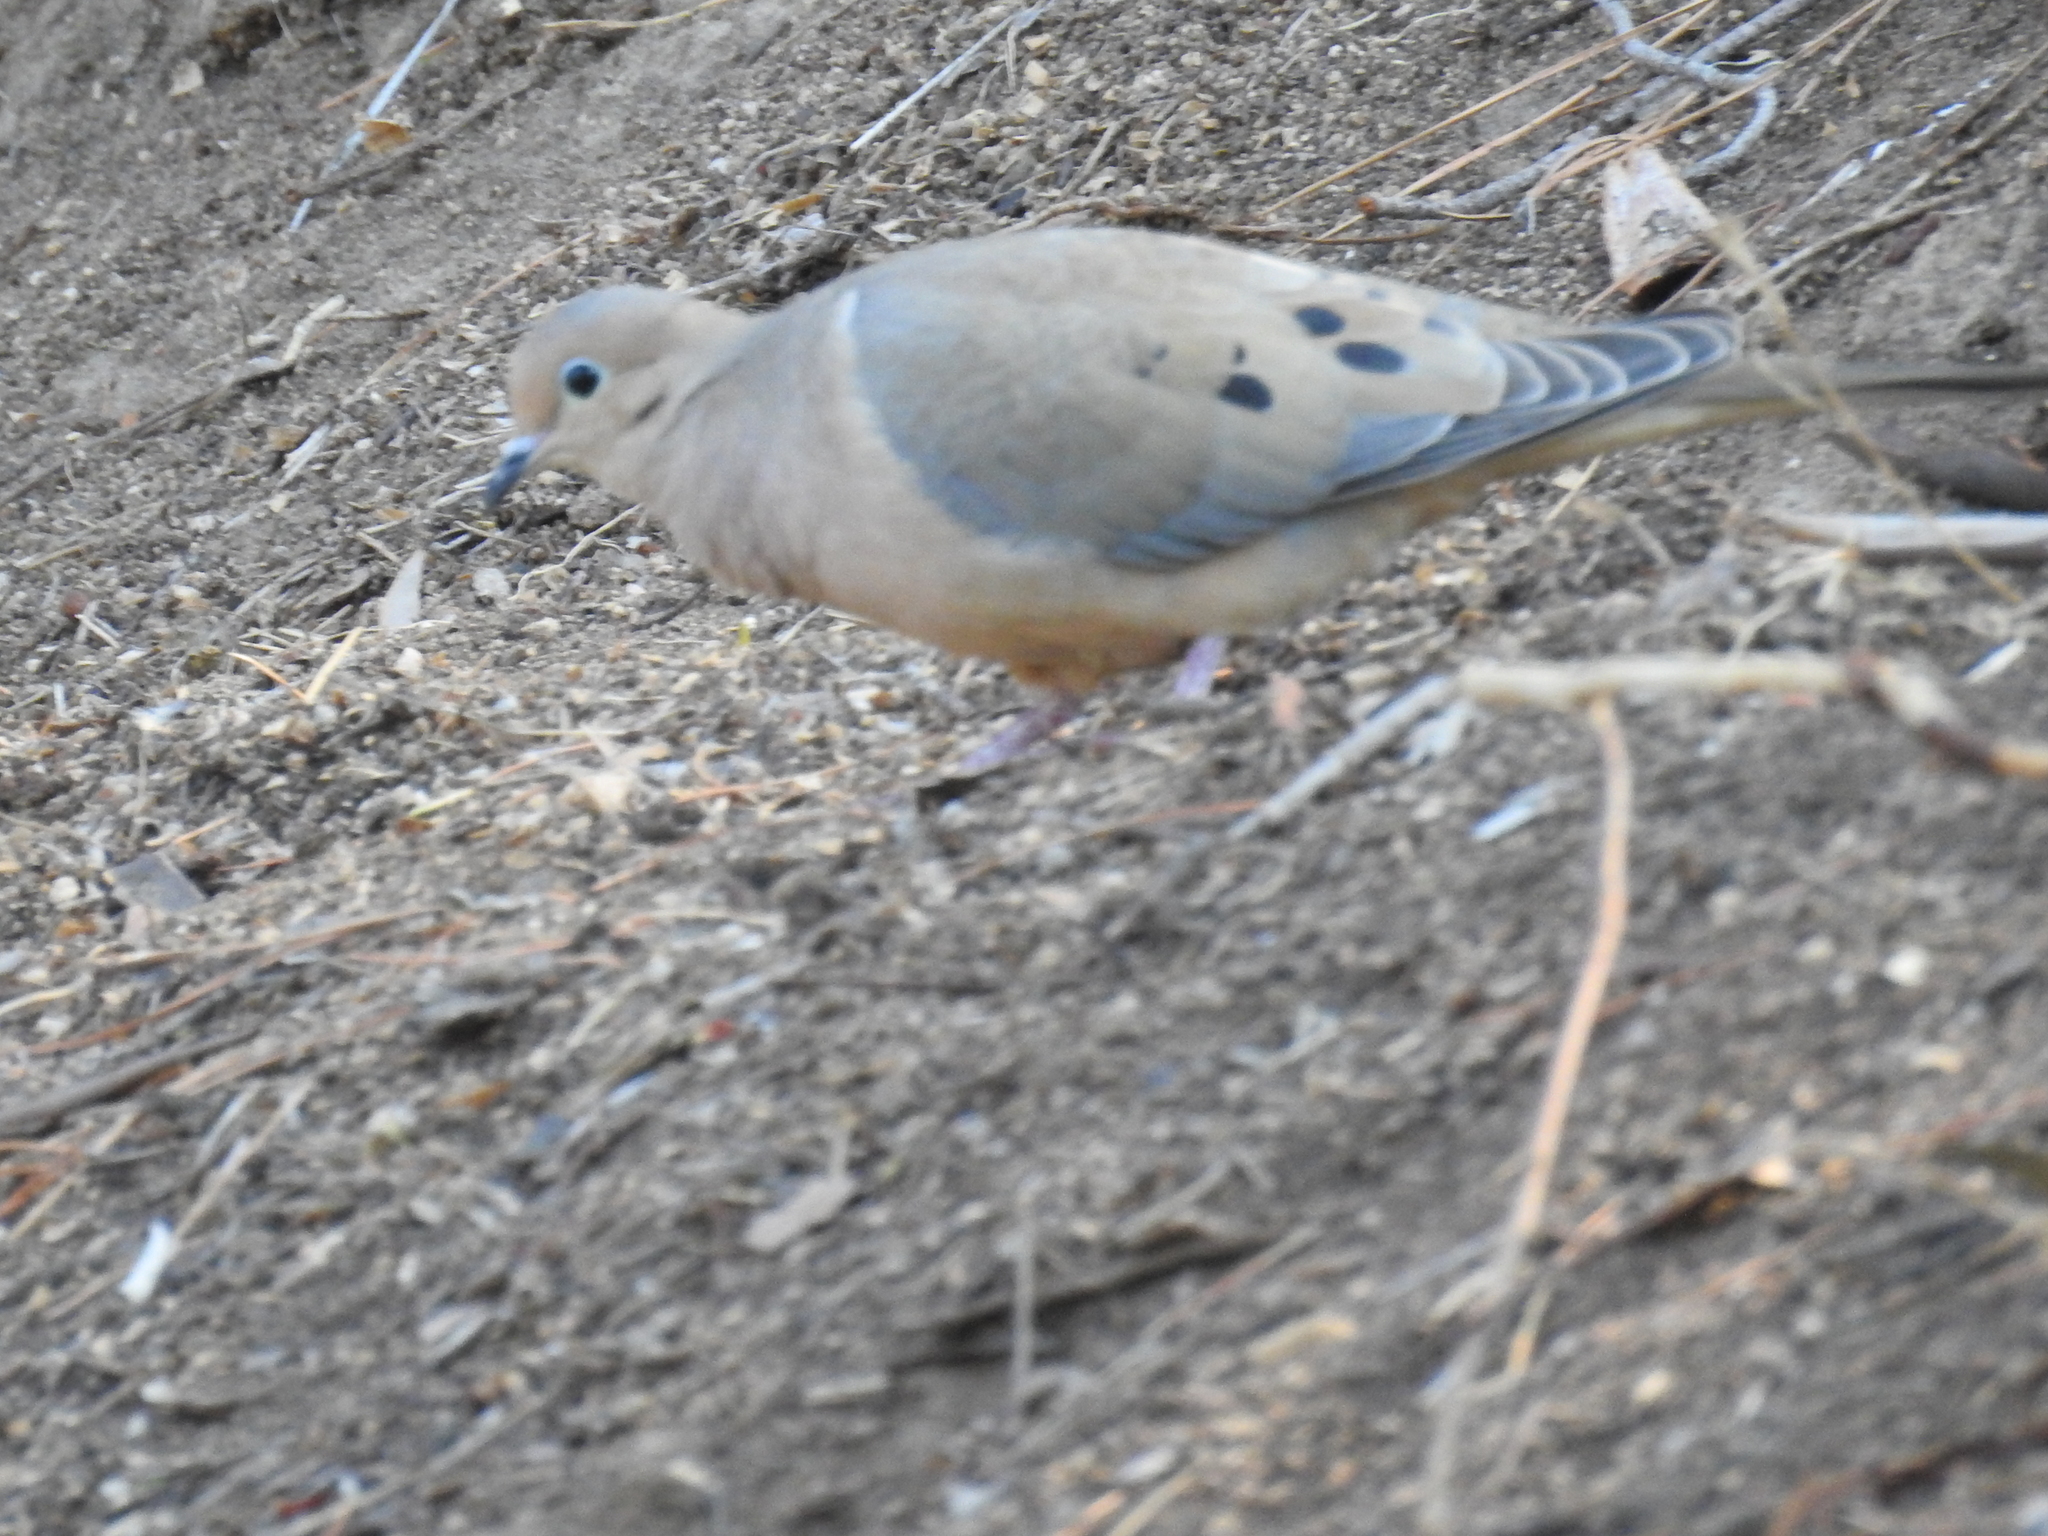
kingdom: Animalia
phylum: Chordata
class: Aves
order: Columbiformes
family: Columbidae
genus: Zenaida
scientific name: Zenaida macroura
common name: Mourning dove
